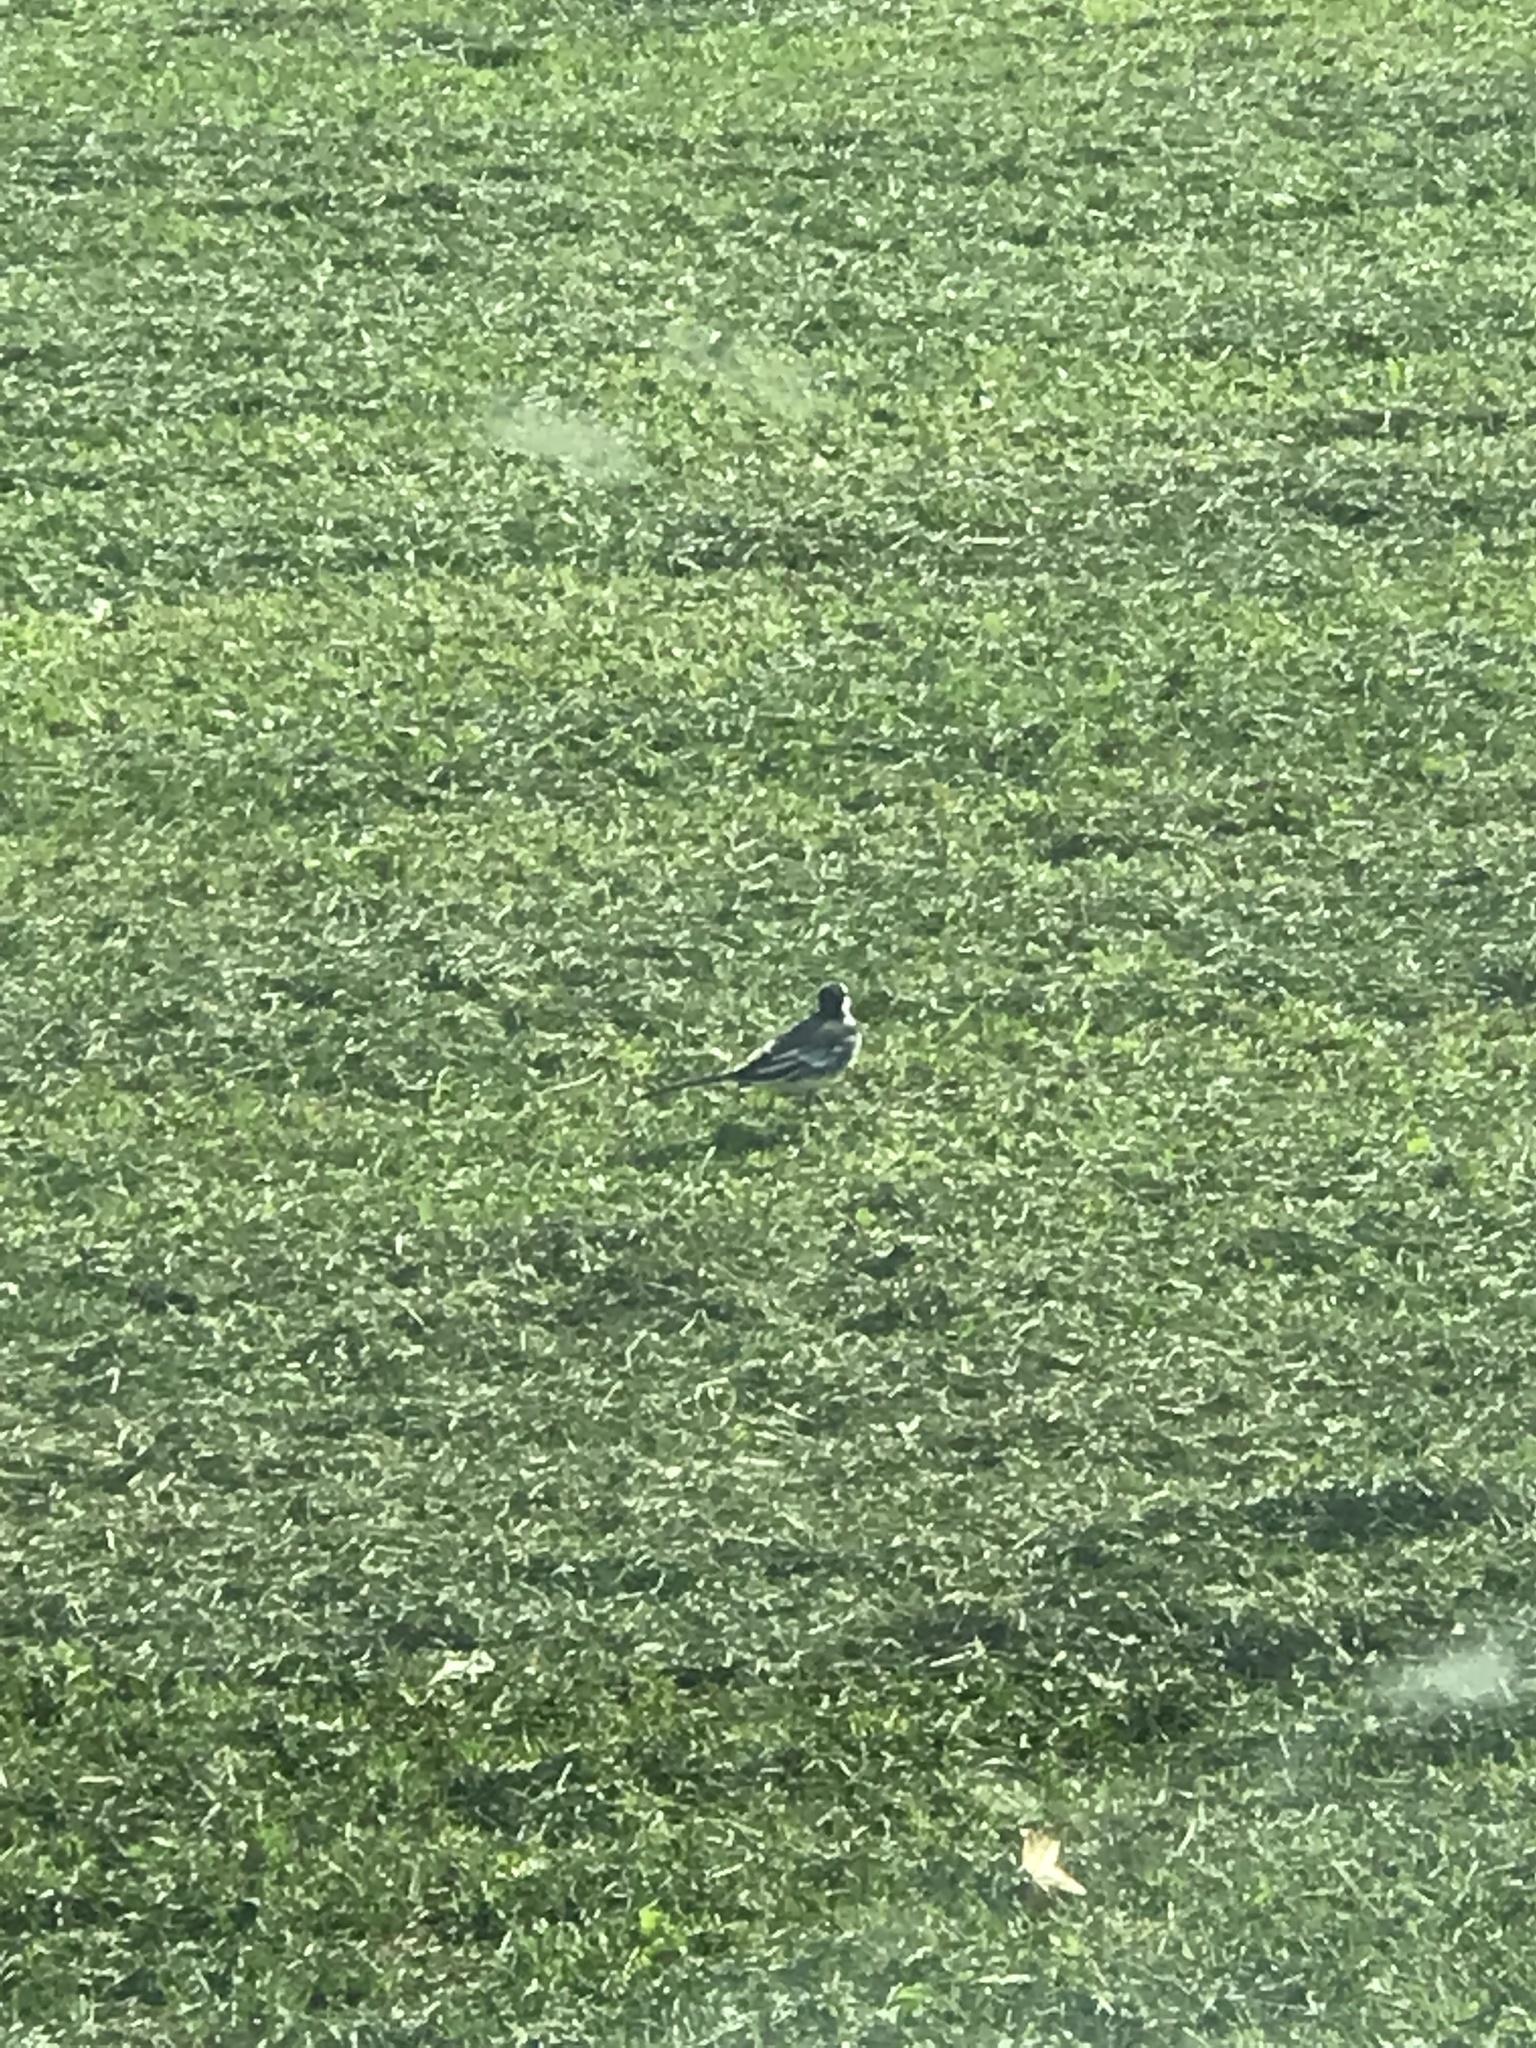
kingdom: Animalia
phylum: Chordata
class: Aves
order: Passeriformes
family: Motacillidae
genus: Motacilla
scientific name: Motacilla alba
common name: White wagtail
